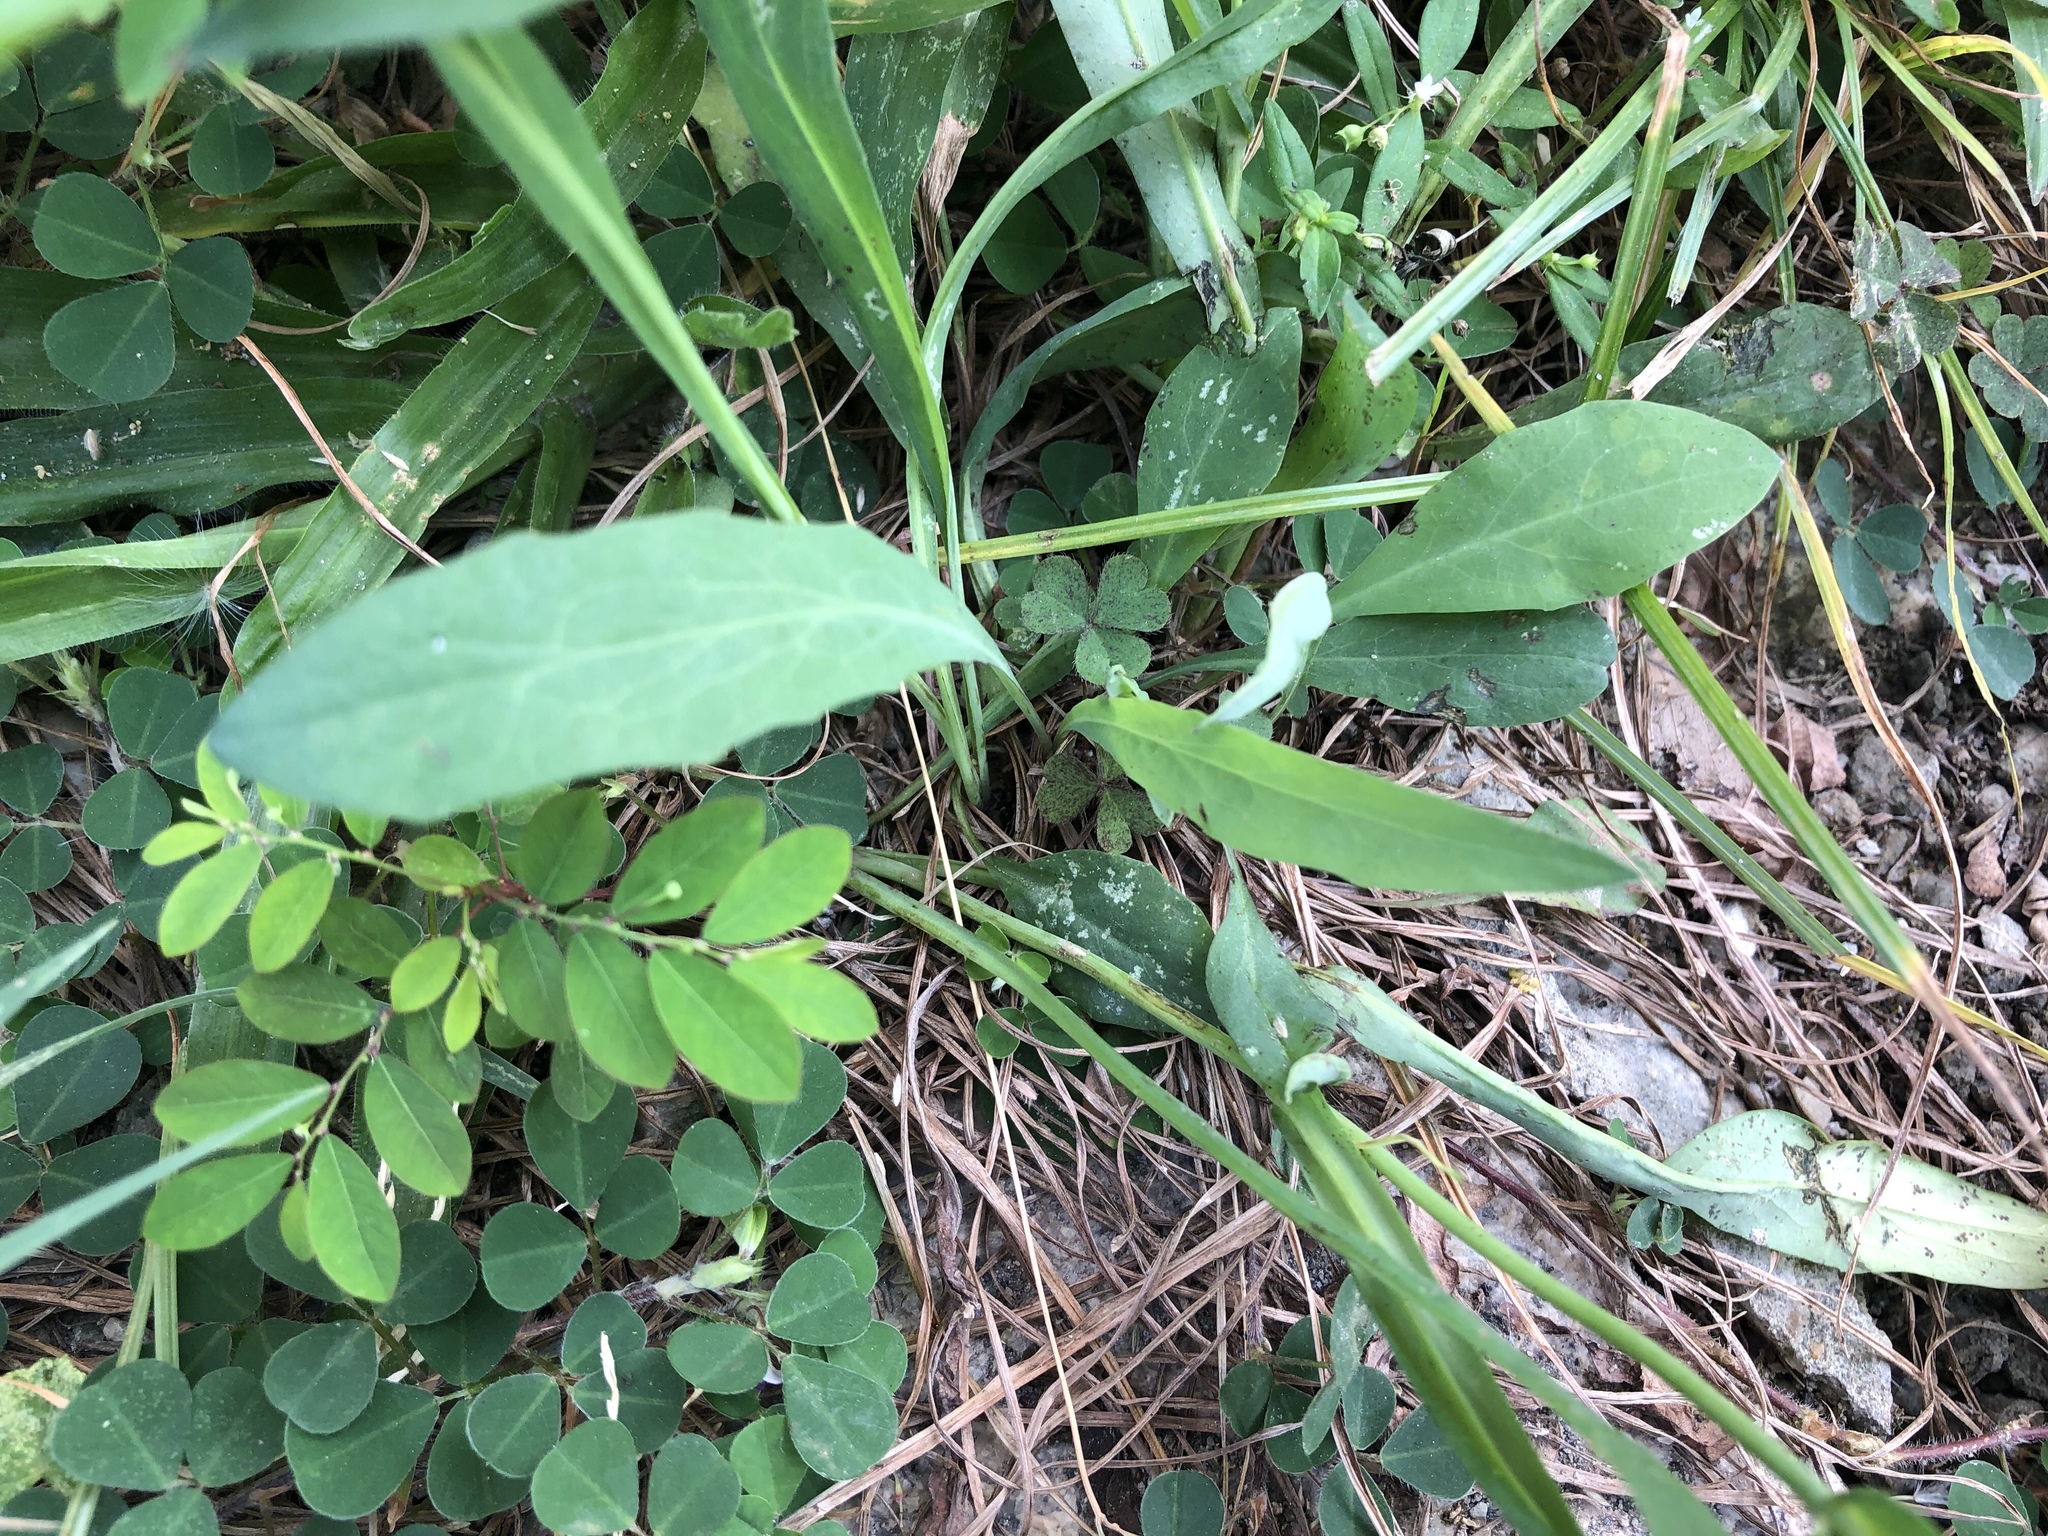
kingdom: Plantae
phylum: Tracheophyta
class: Magnoliopsida
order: Asterales
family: Asteraceae
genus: Ixeris
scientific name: Ixeris chinensis
